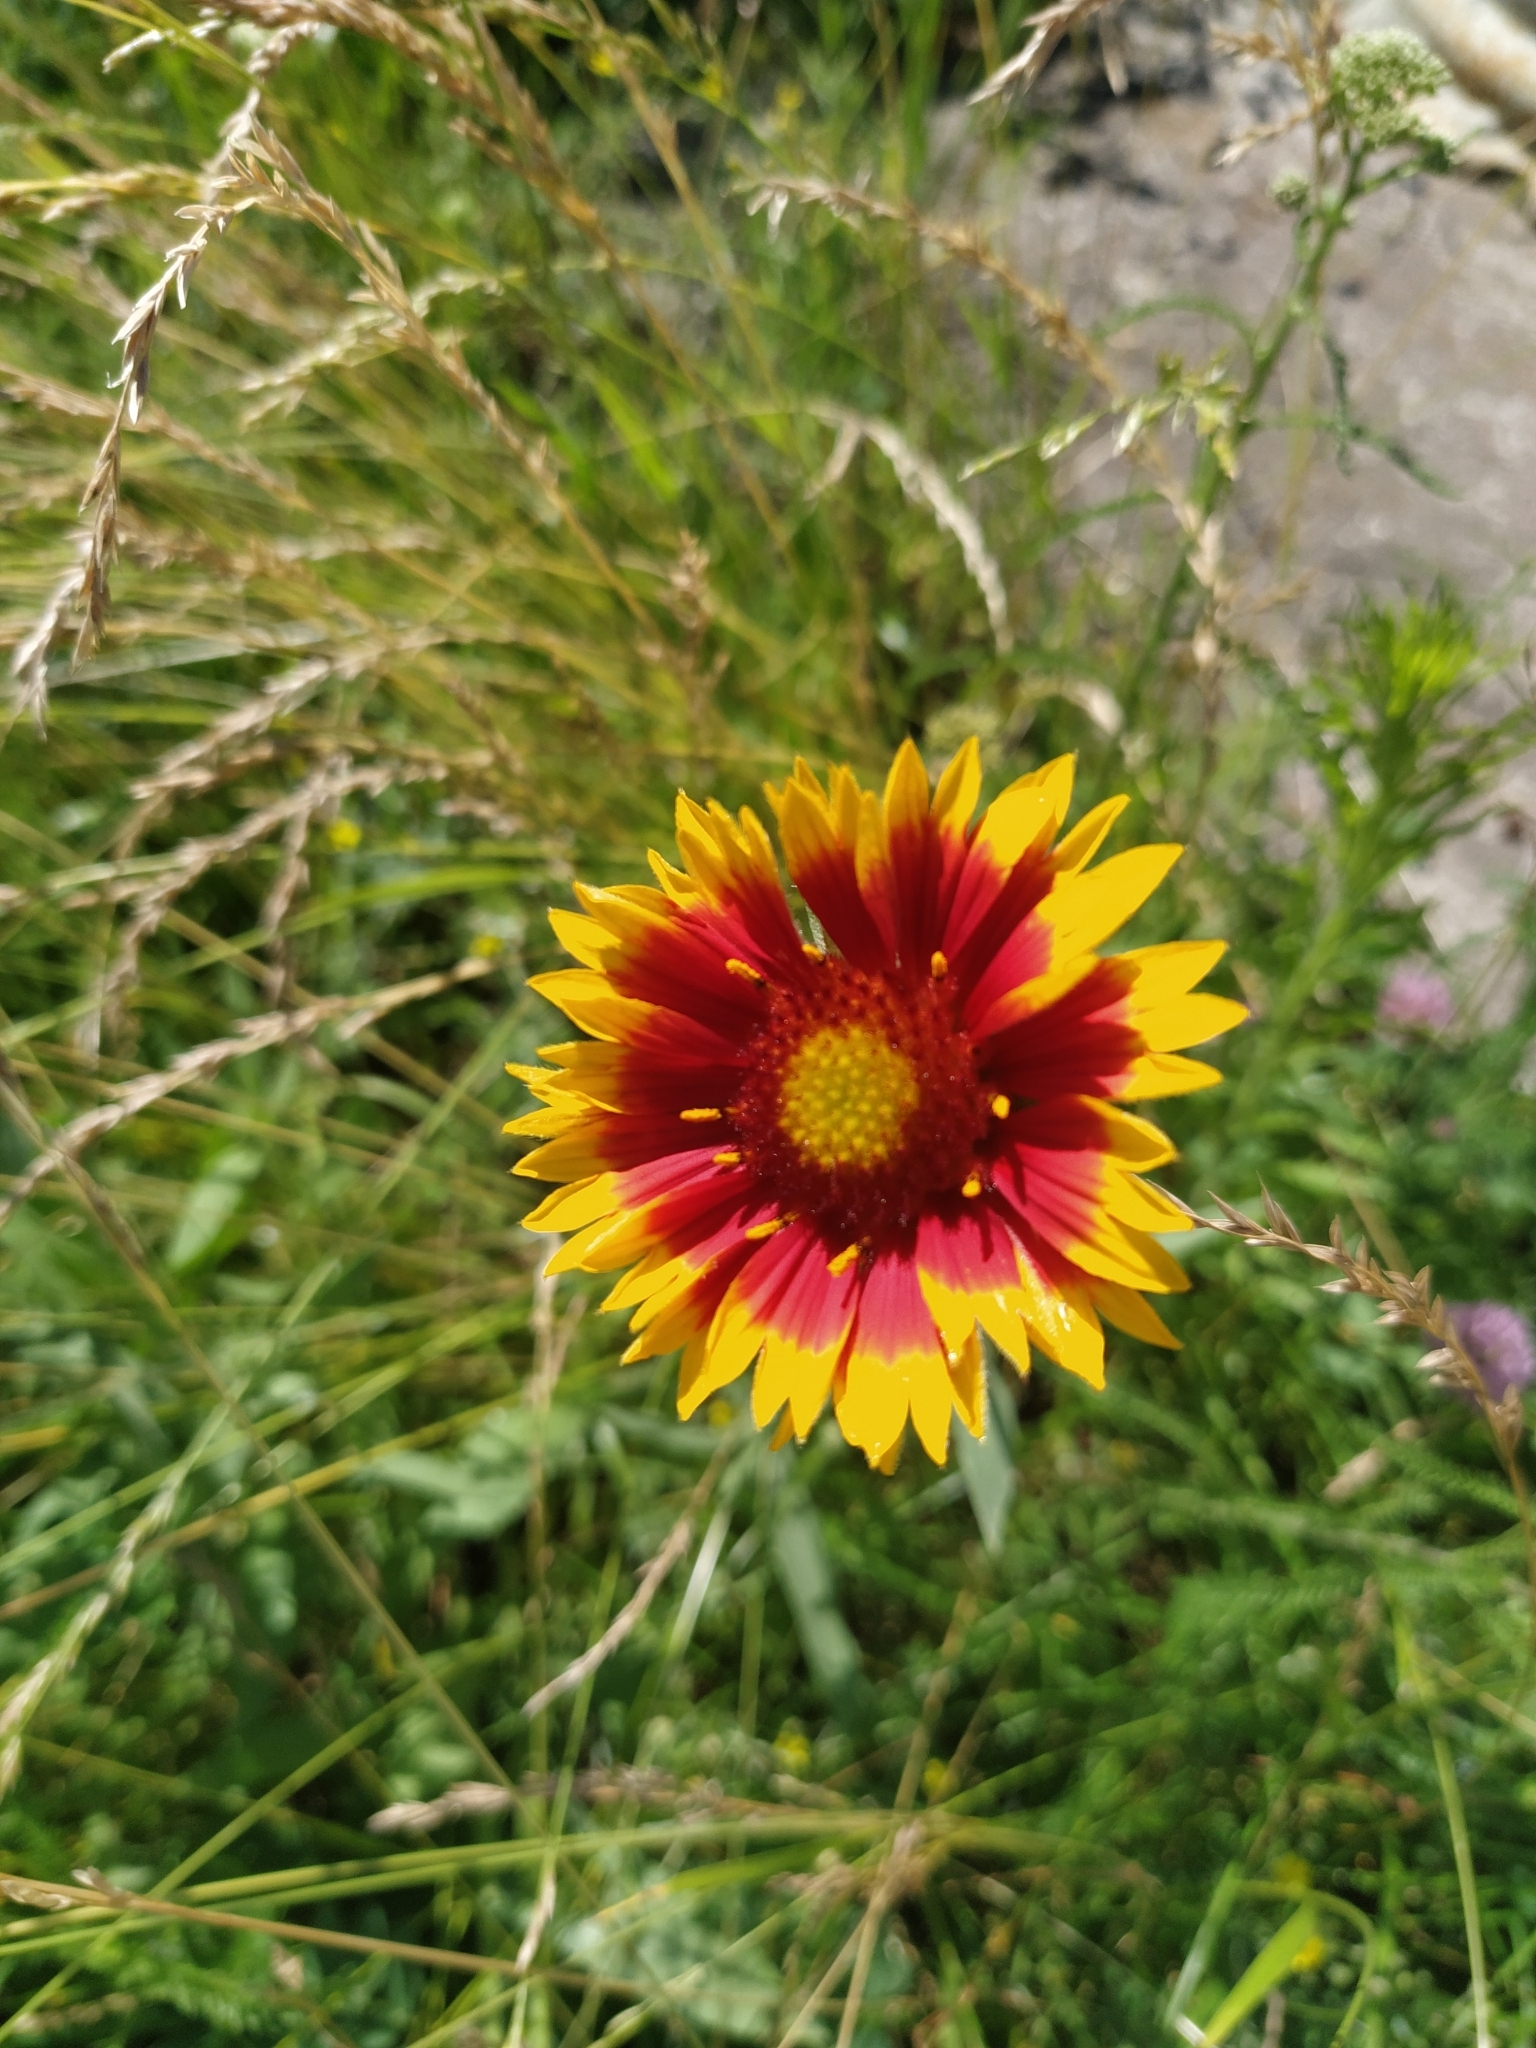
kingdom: Plantae
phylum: Tracheophyta
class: Magnoliopsida
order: Asterales
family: Asteraceae
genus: Gaillardia
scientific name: Gaillardia pulchella
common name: Firewheel
